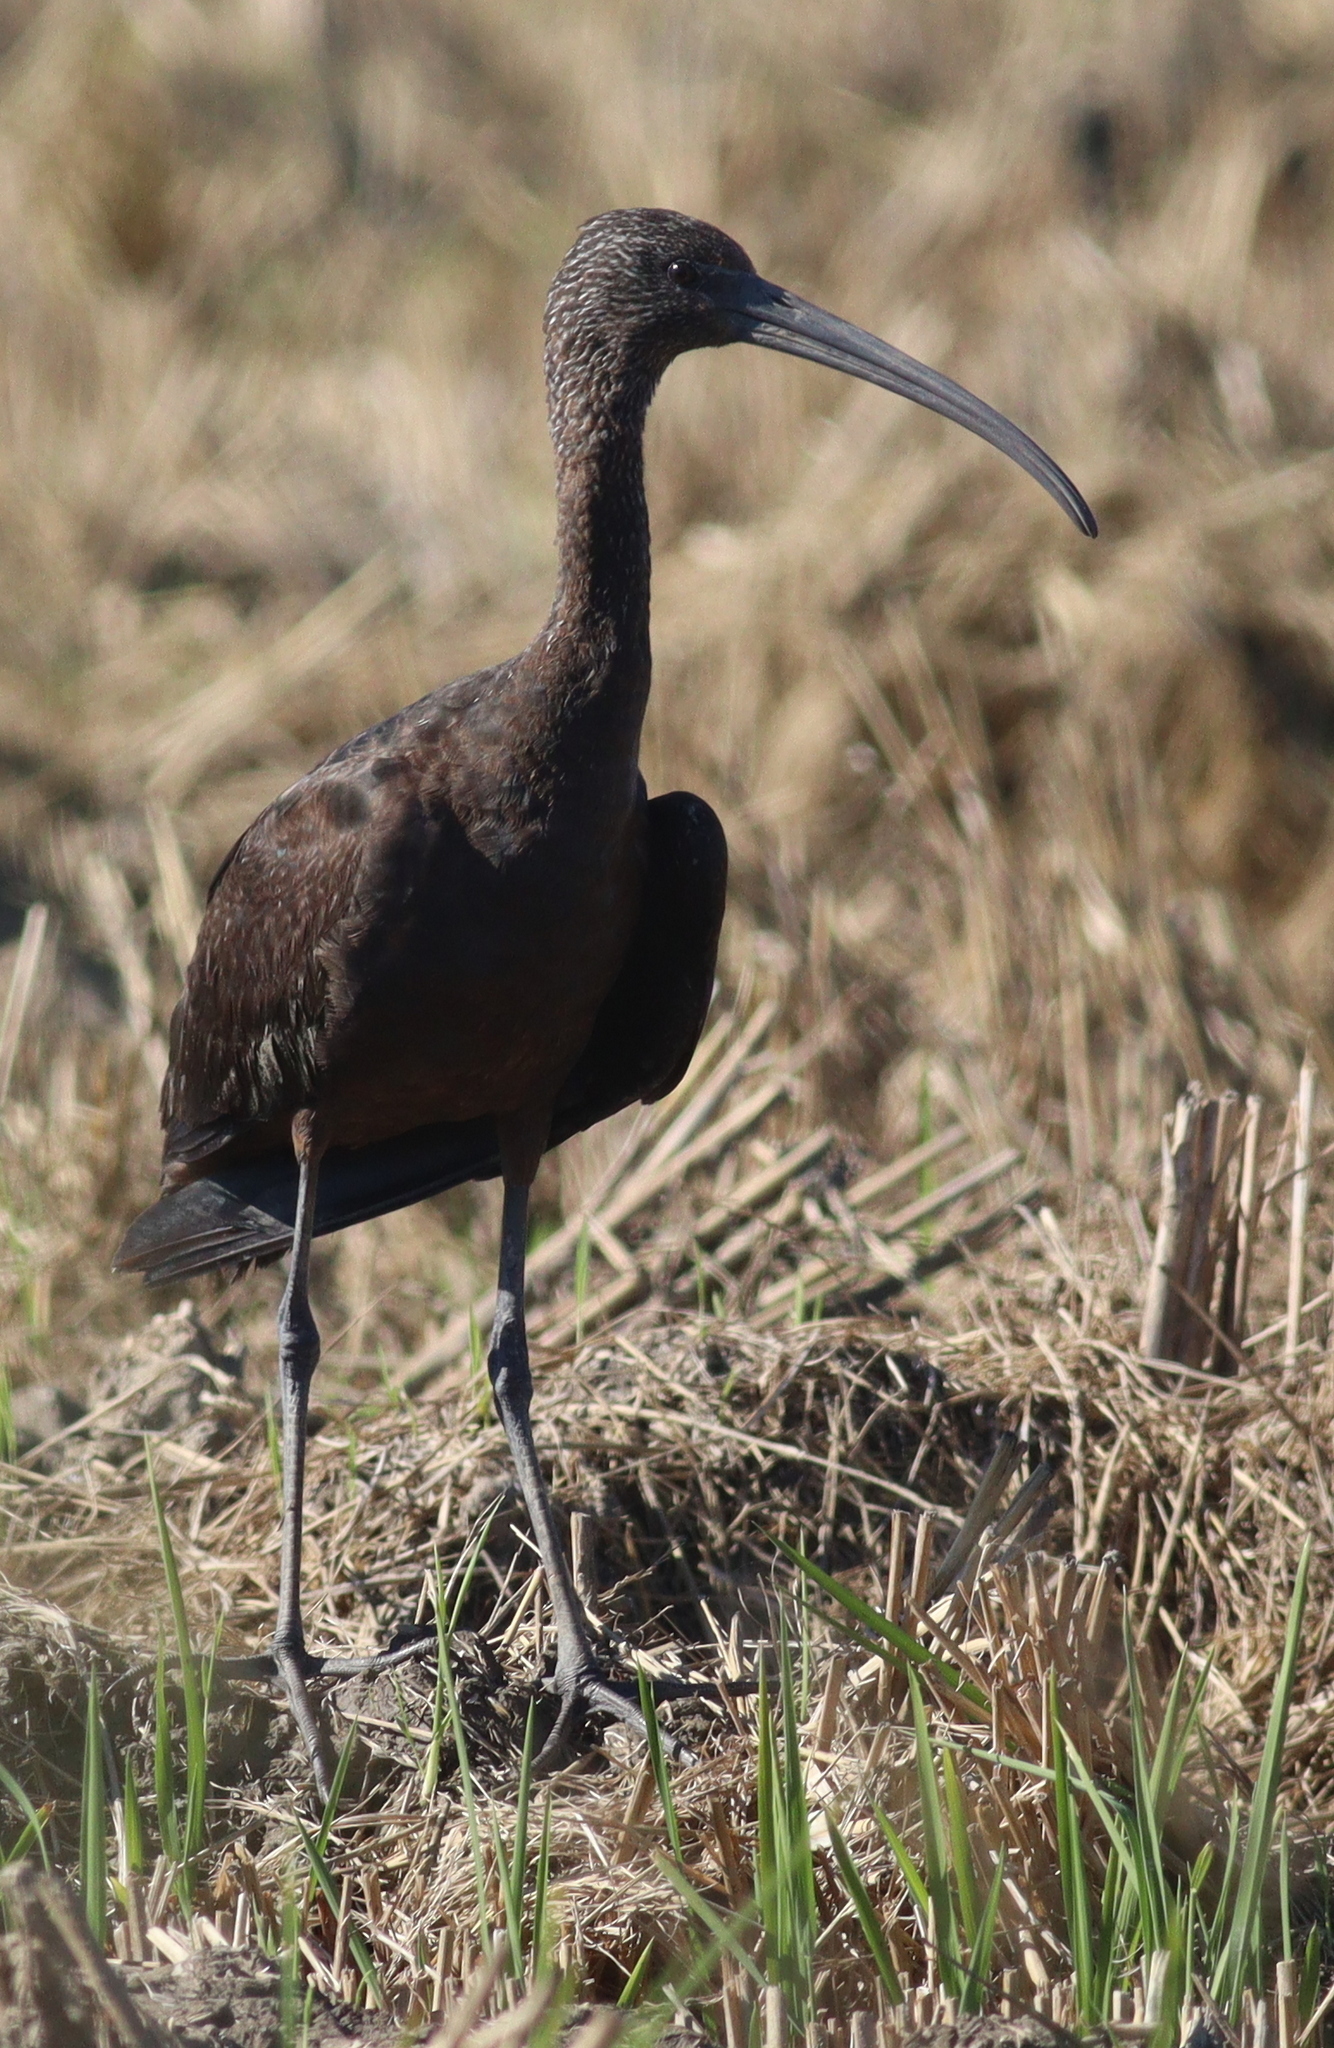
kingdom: Animalia
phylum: Chordata
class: Aves
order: Pelecaniformes
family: Threskiornithidae
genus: Plegadis
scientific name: Plegadis falcinellus
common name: Glossy ibis
